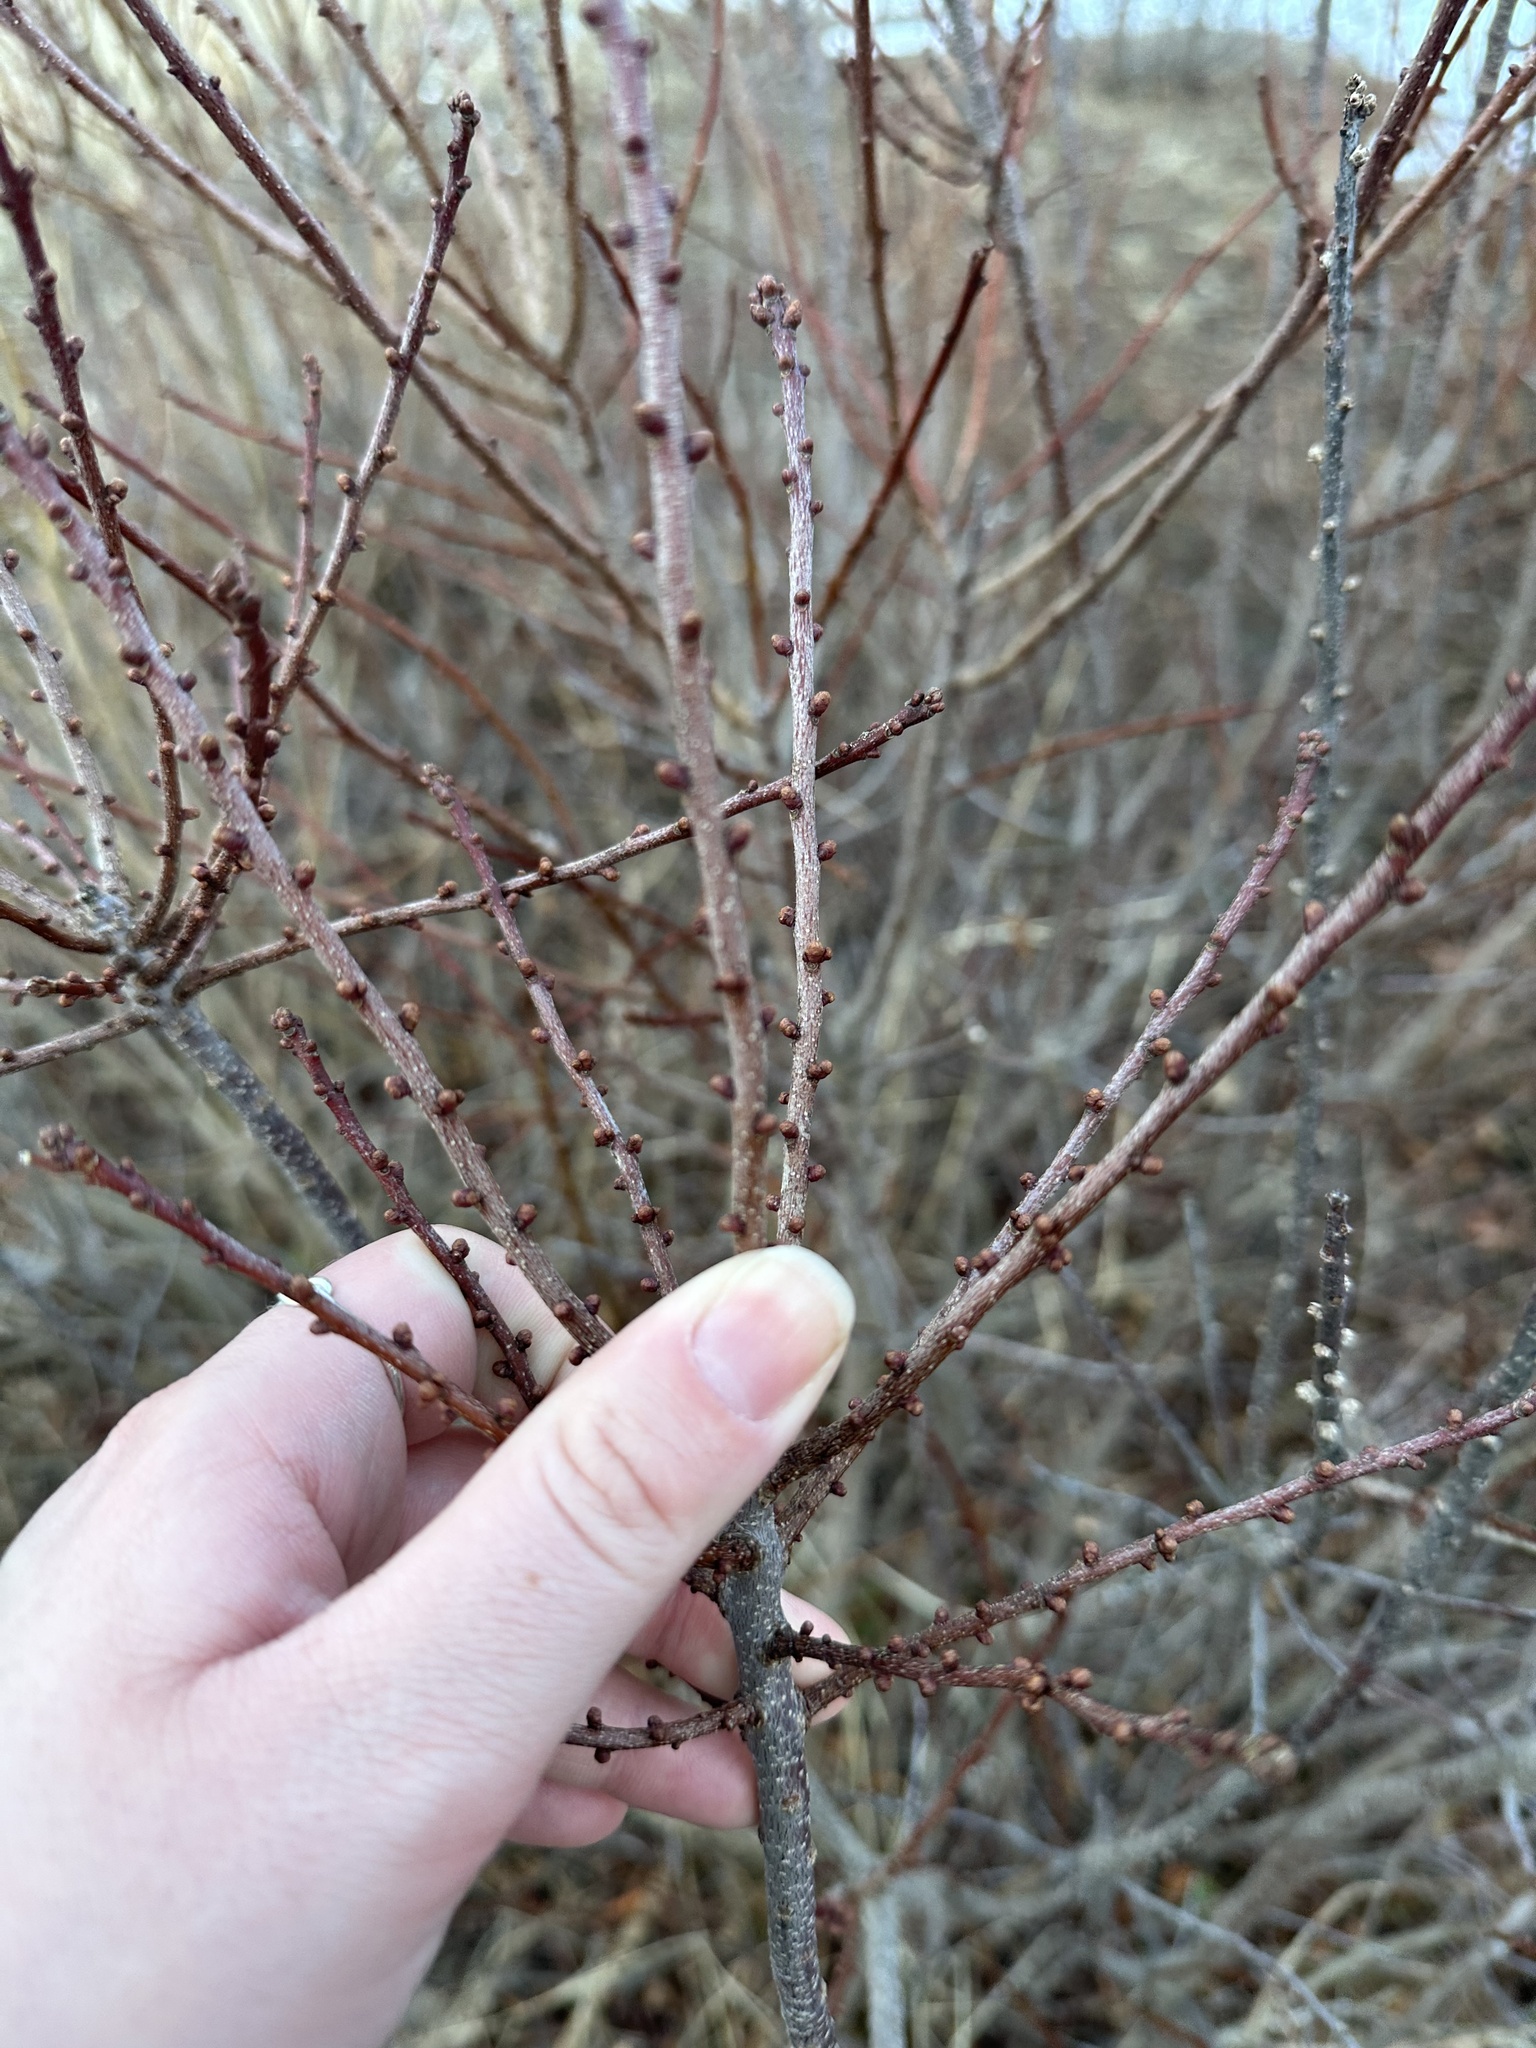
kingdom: Plantae
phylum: Tracheophyta
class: Magnoliopsida
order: Fagales
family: Myricaceae
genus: Morella
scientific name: Morella pensylvanica
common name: Northern bayberry
